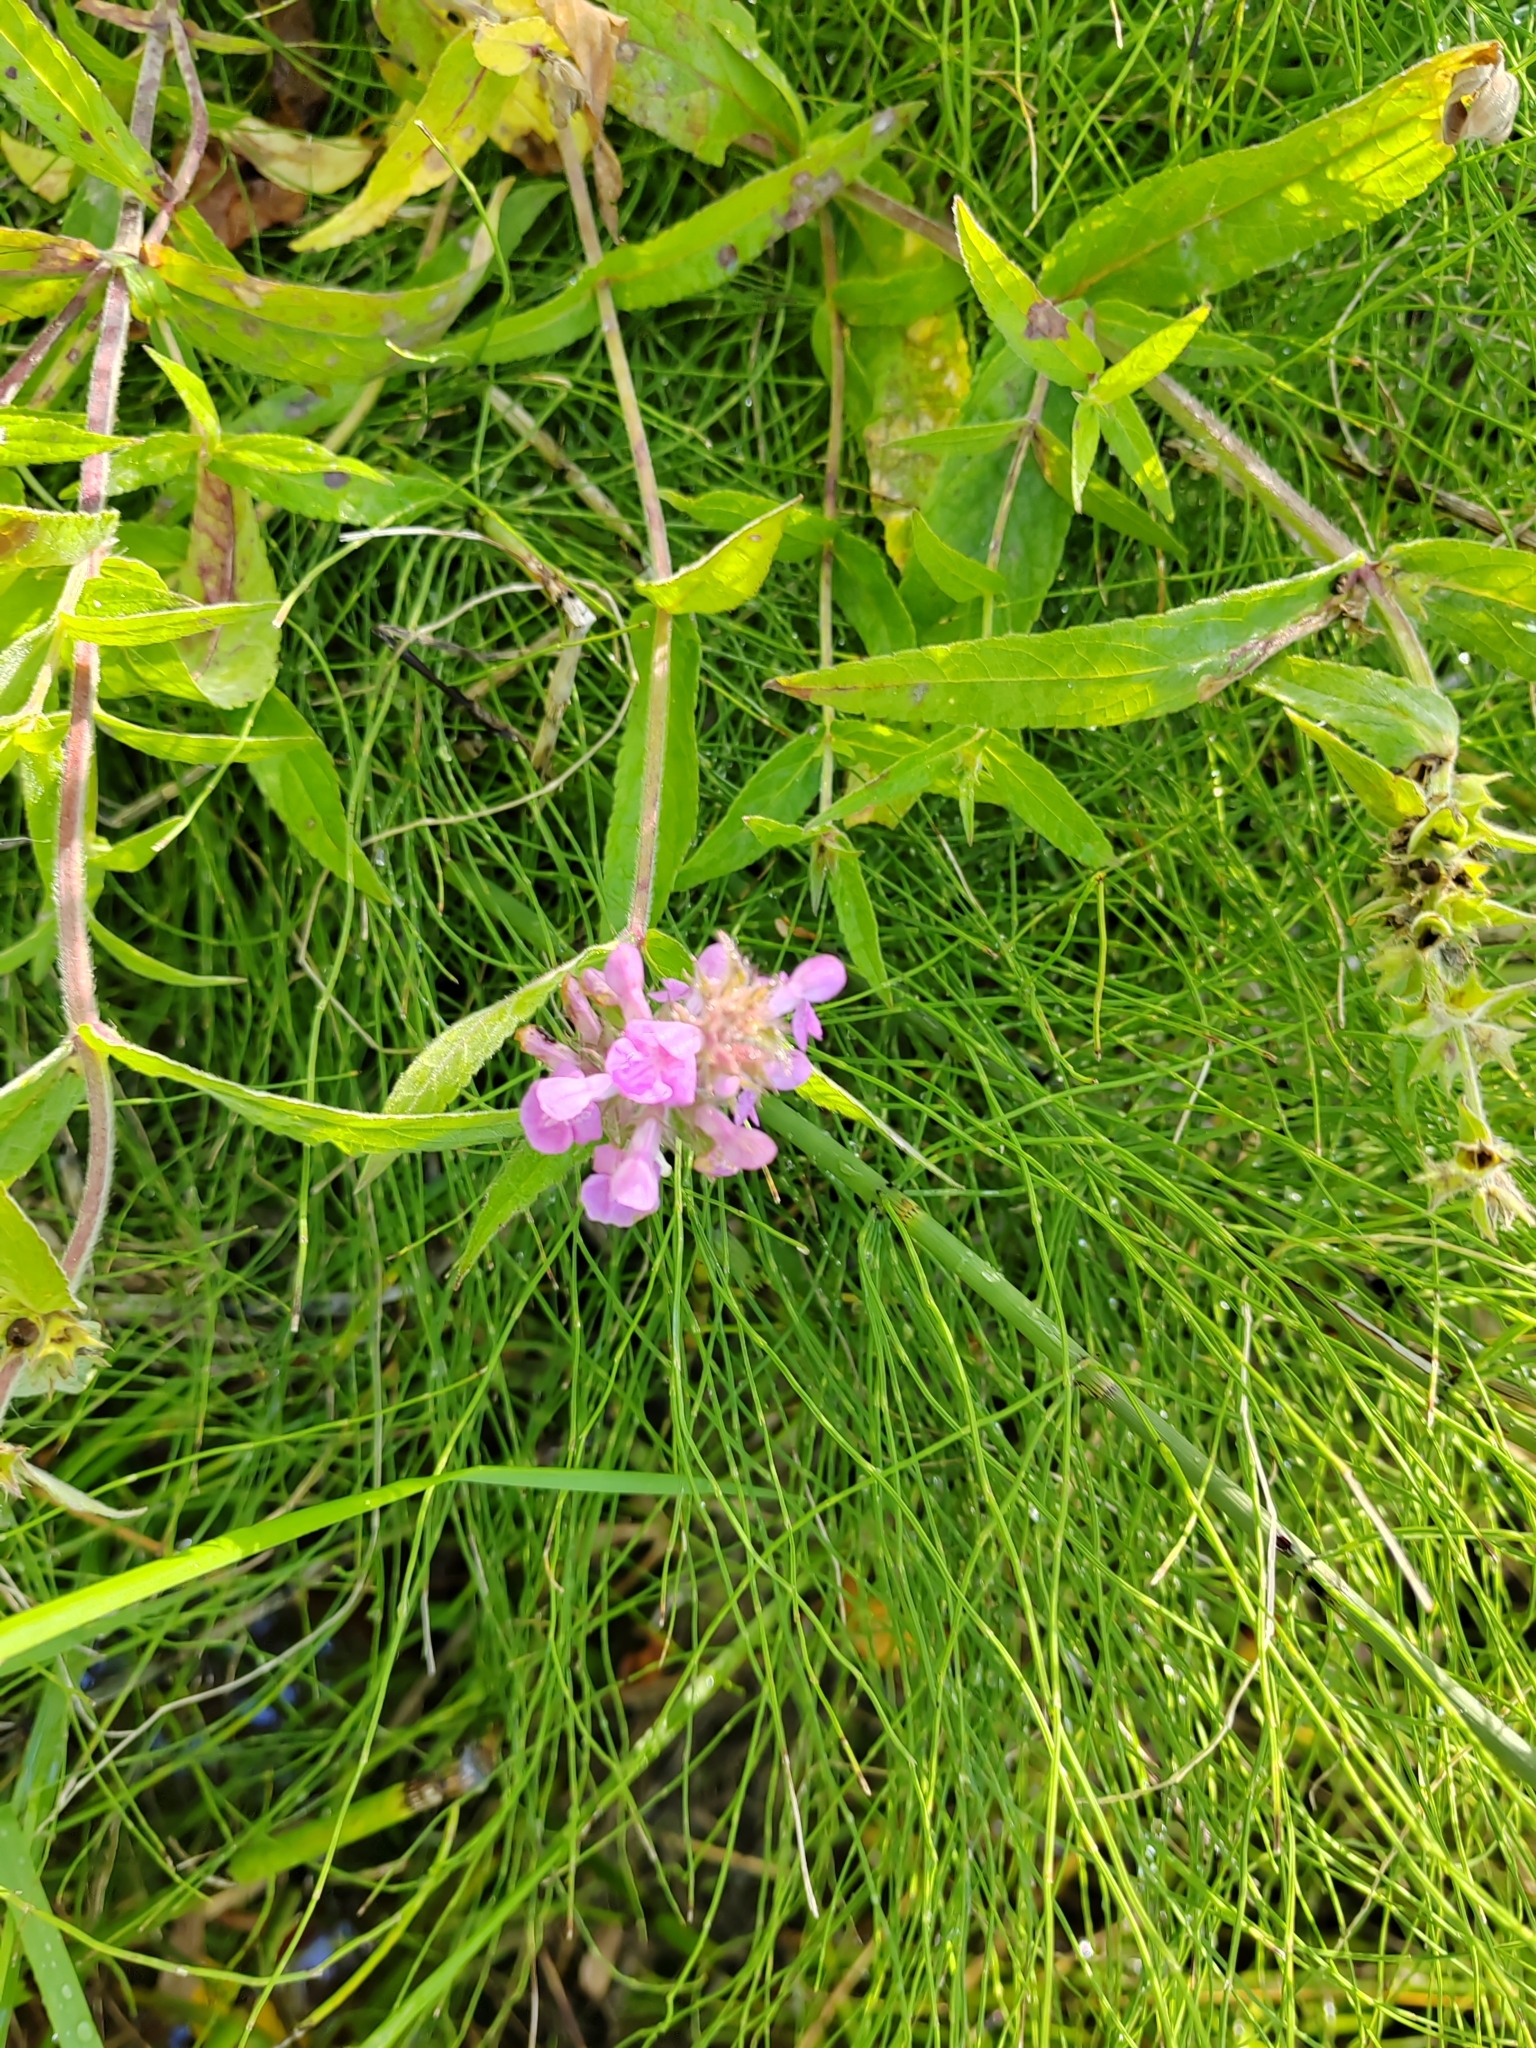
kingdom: Plantae
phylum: Tracheophyta
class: Magnoliopsida
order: Lamiales
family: Lamiaceae
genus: Stachys
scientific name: Stachys palustris
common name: Marsh woundwort
